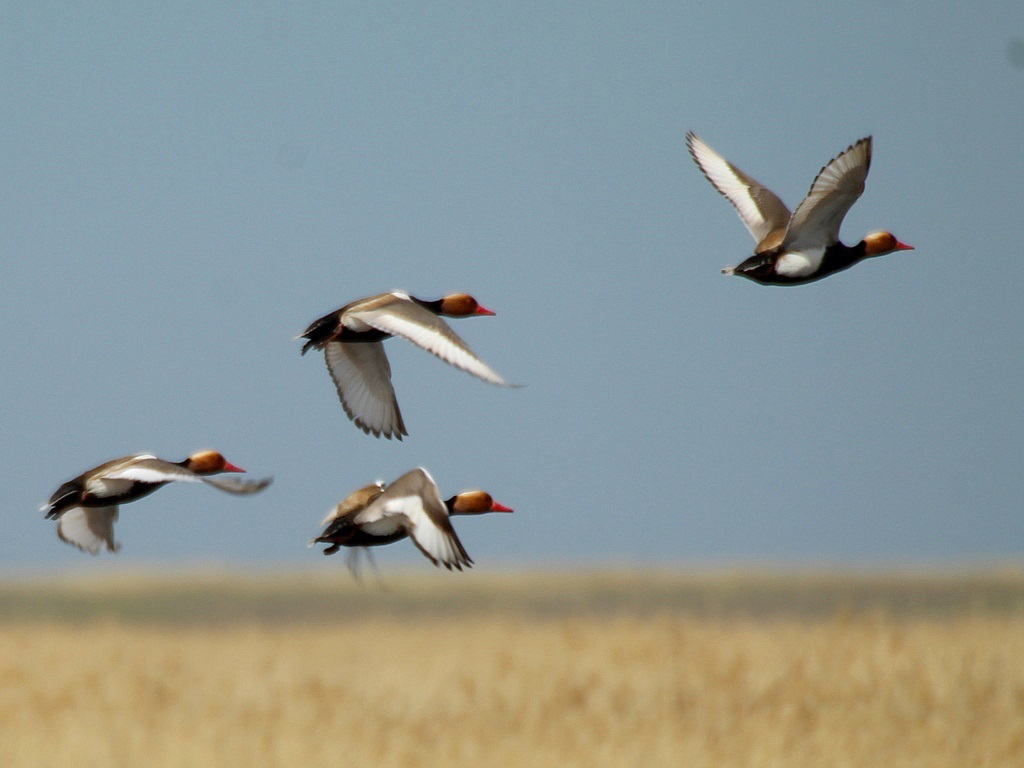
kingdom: Animalia
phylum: Chordata
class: Aves
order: Anseriformes
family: Anatidae
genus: Netta
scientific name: Netta rufina
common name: Red-crested pochard
